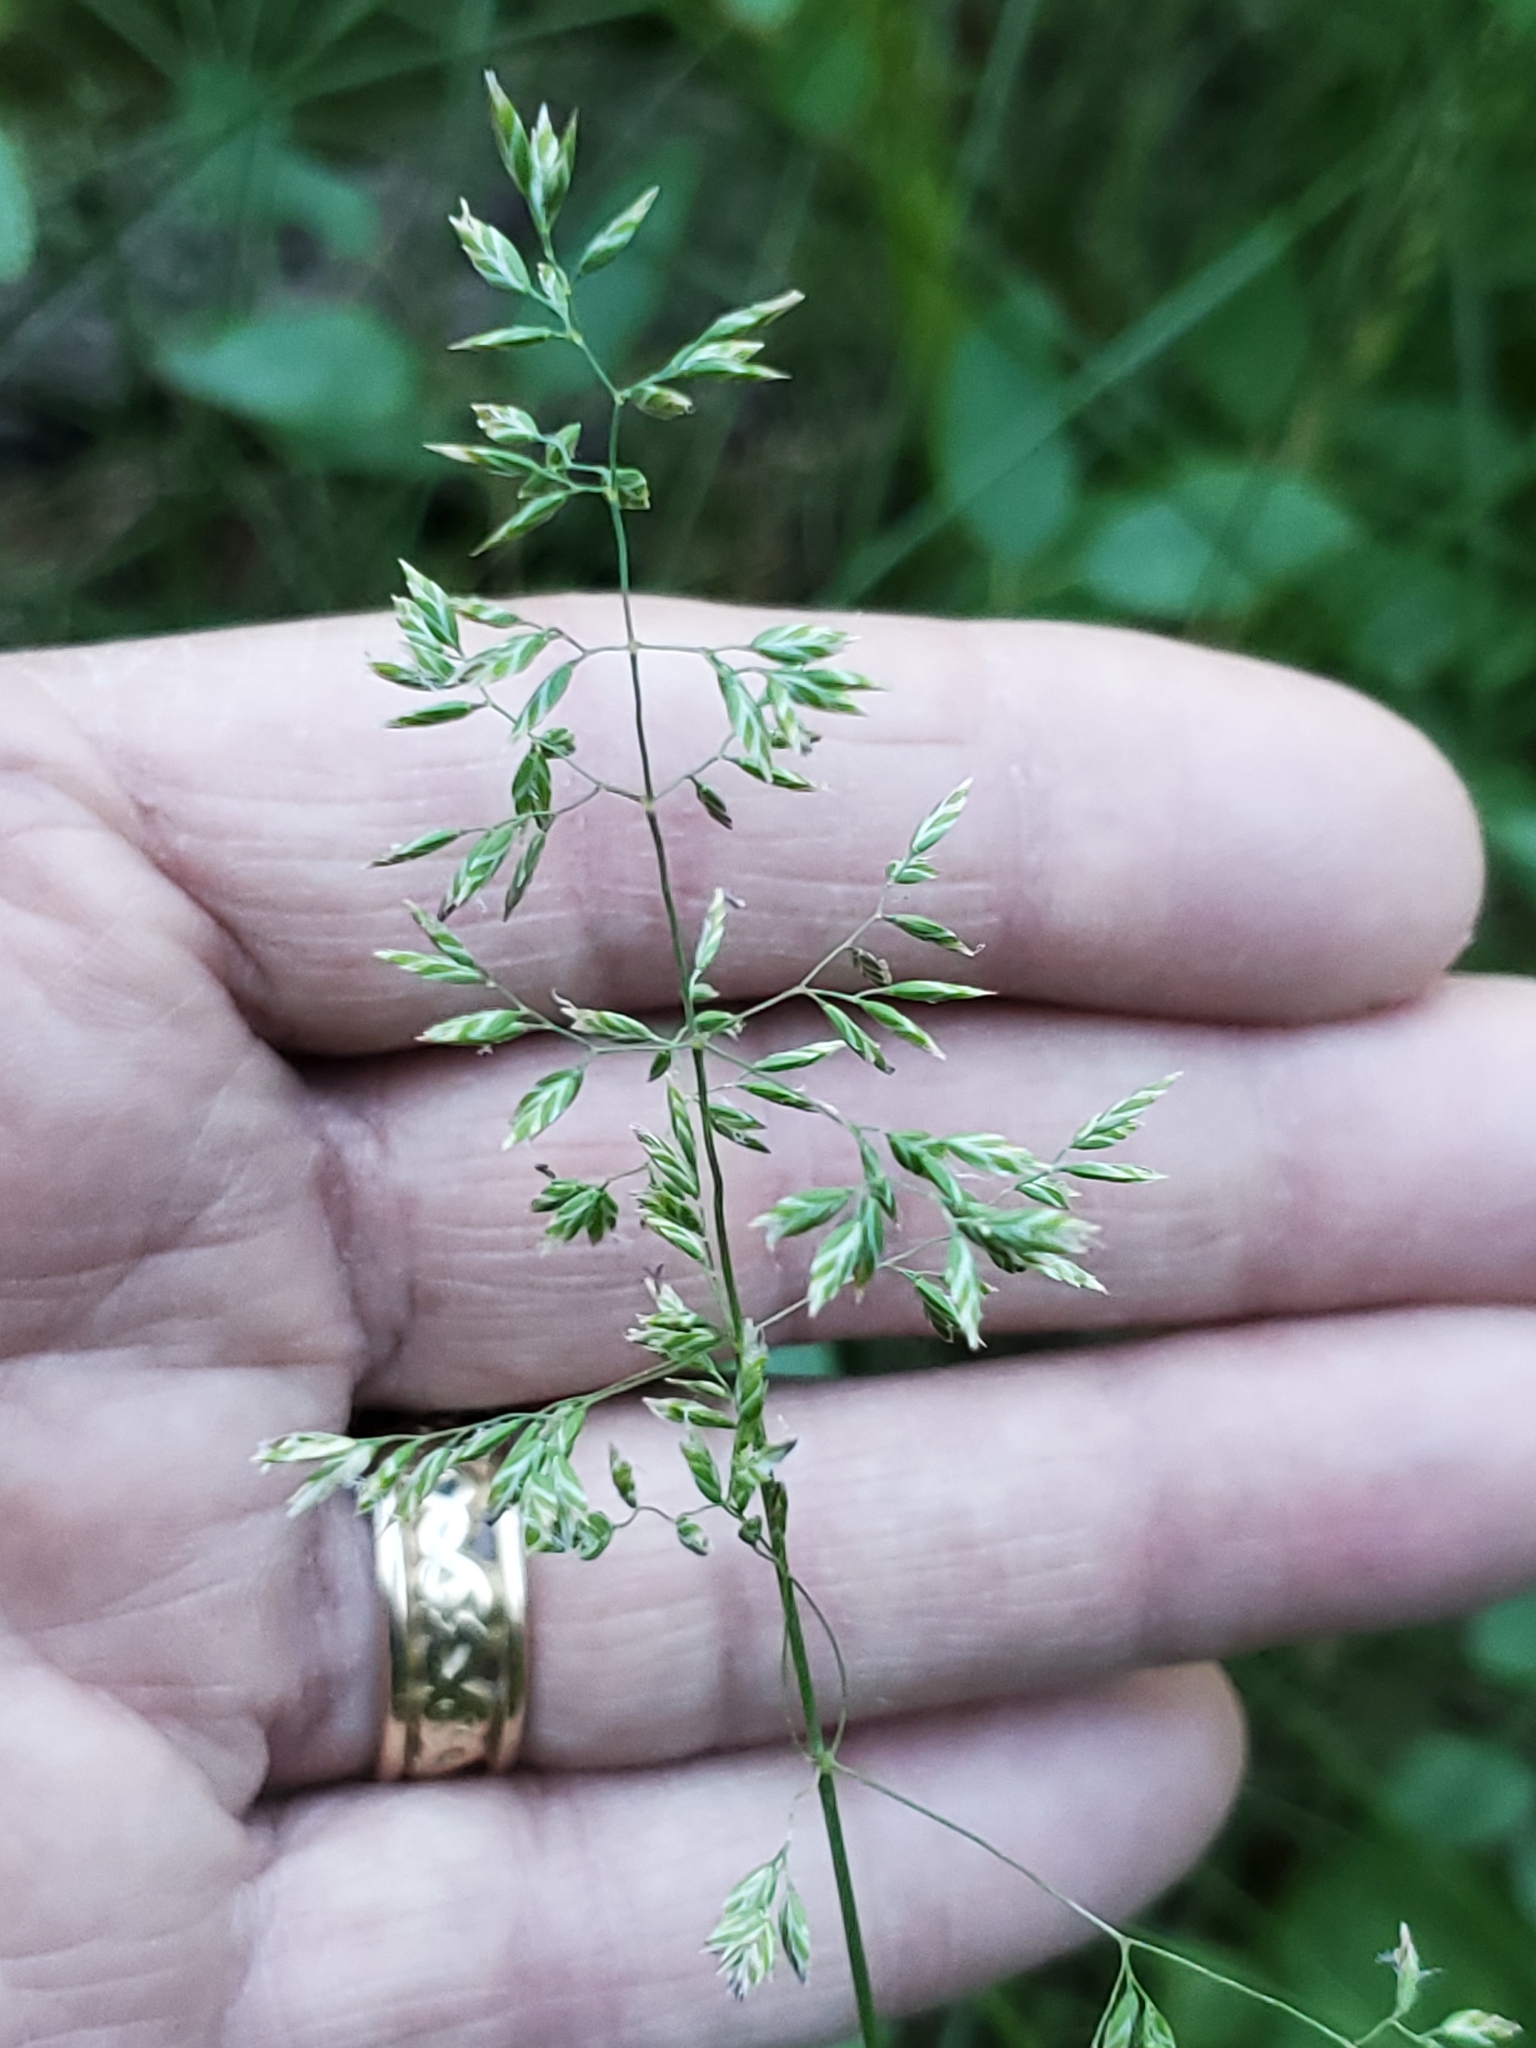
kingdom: Plantae
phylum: Tracheophyta
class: Liliopsida
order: Poales
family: Poaceae
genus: Poa
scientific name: Poa pratensis
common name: Kentucky bluegrass
